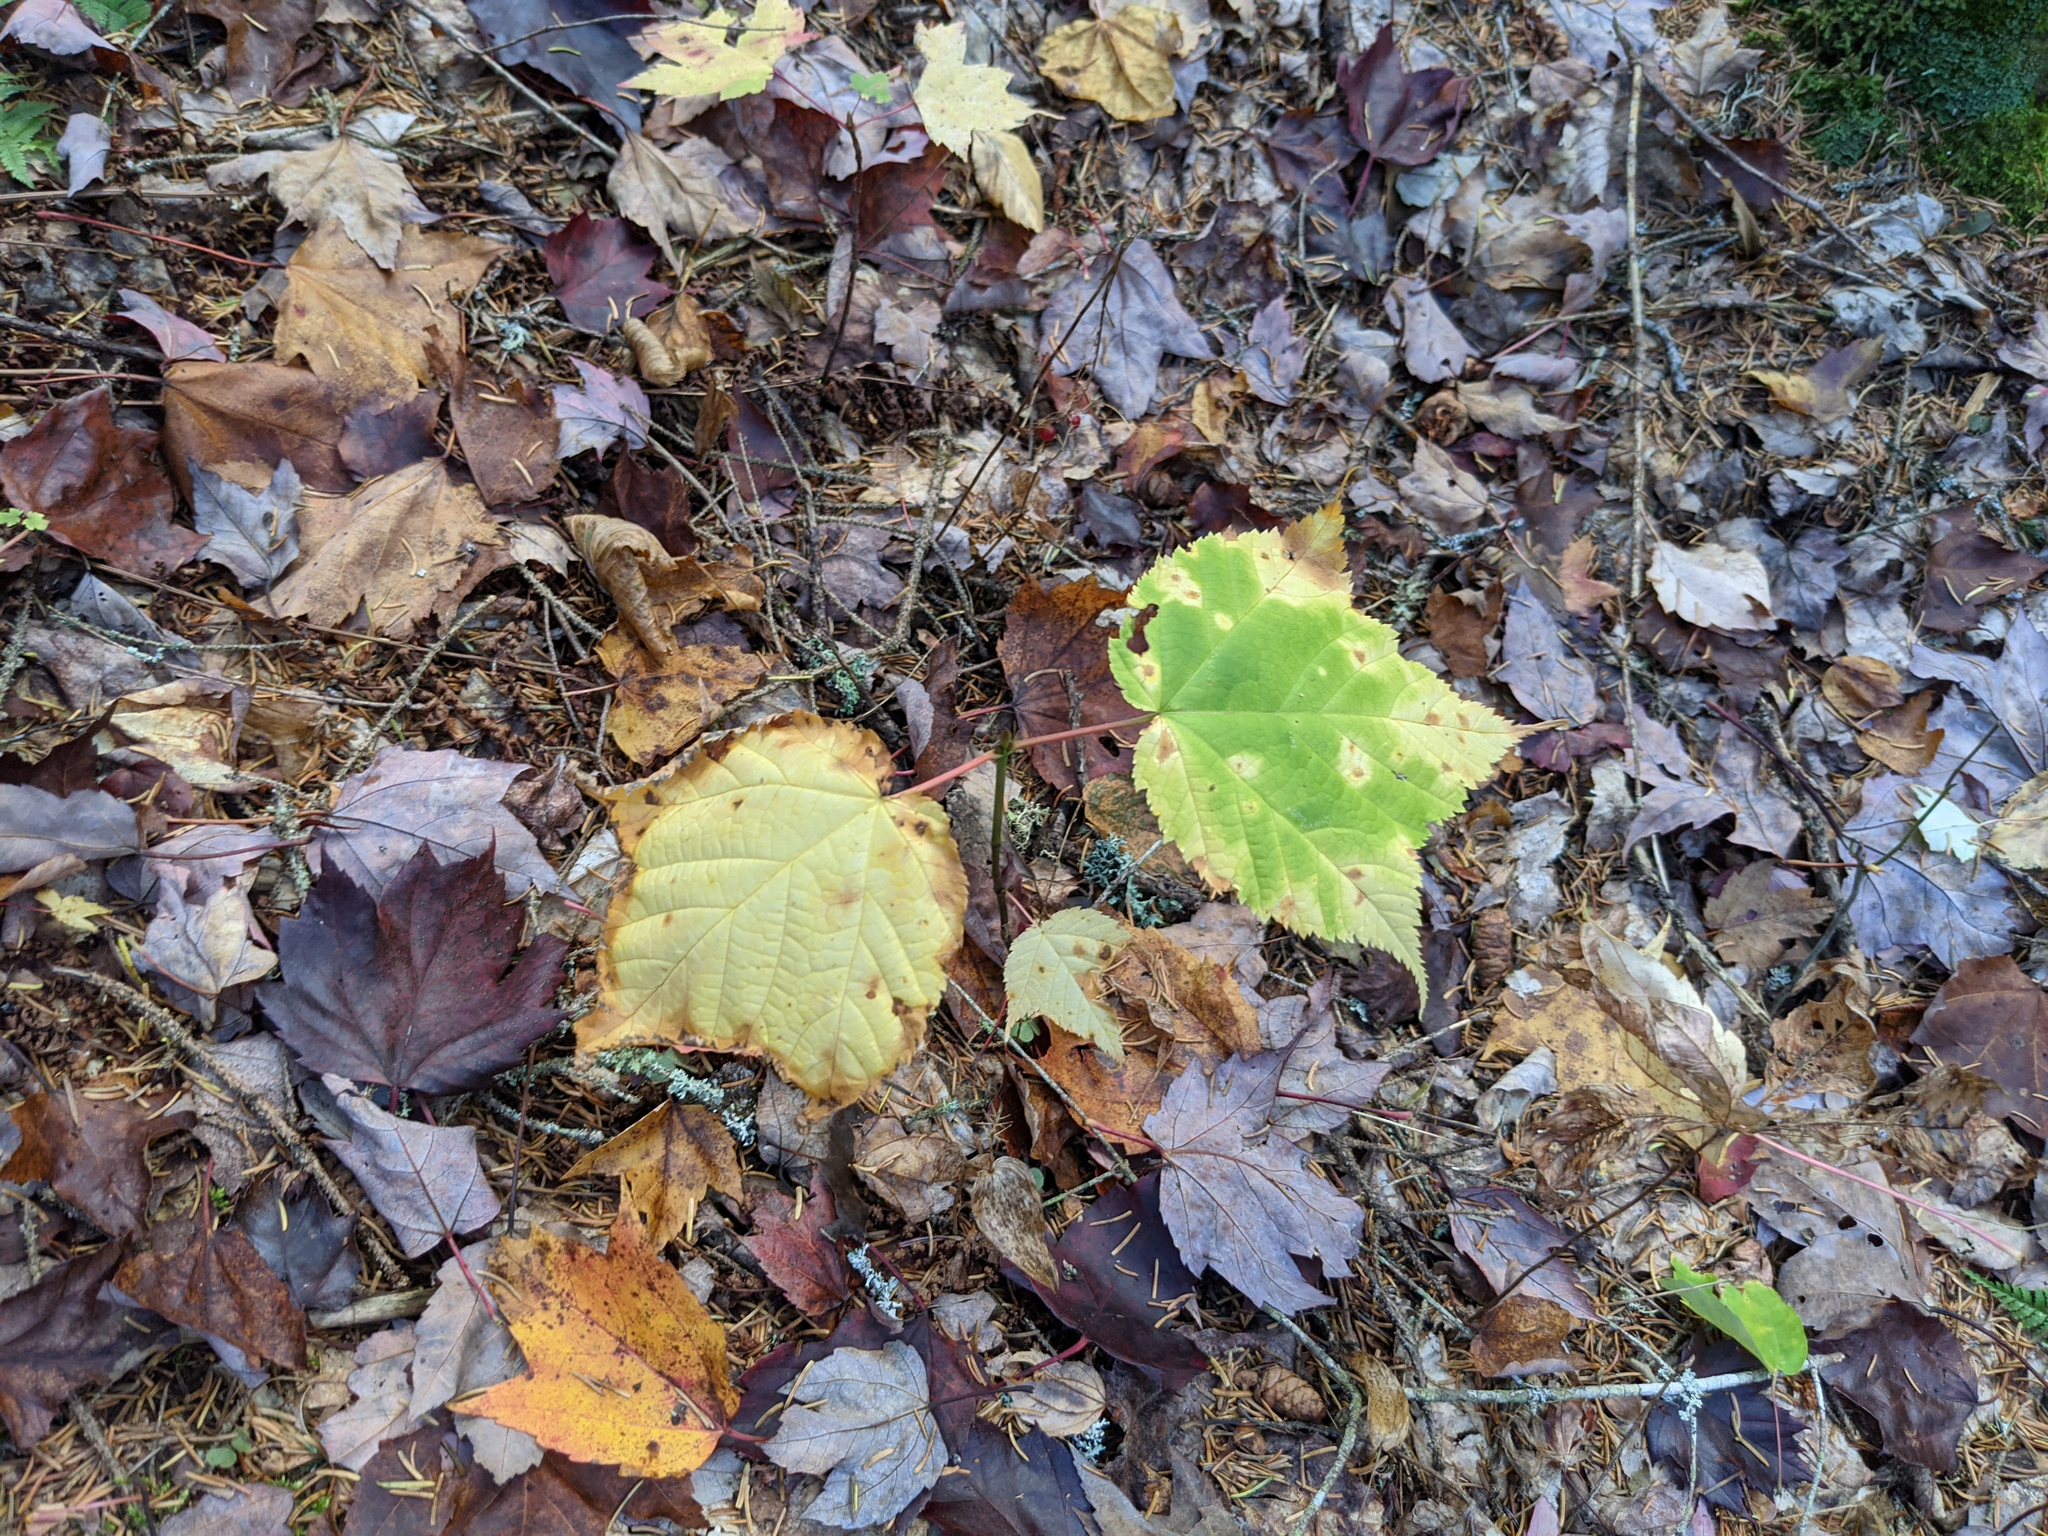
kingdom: Plantae
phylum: Tracheophyta
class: Magnoliopsida
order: Sapindales
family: Sapindaceae
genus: Acer
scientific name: Acer pensylvanicum
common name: Moosewood
